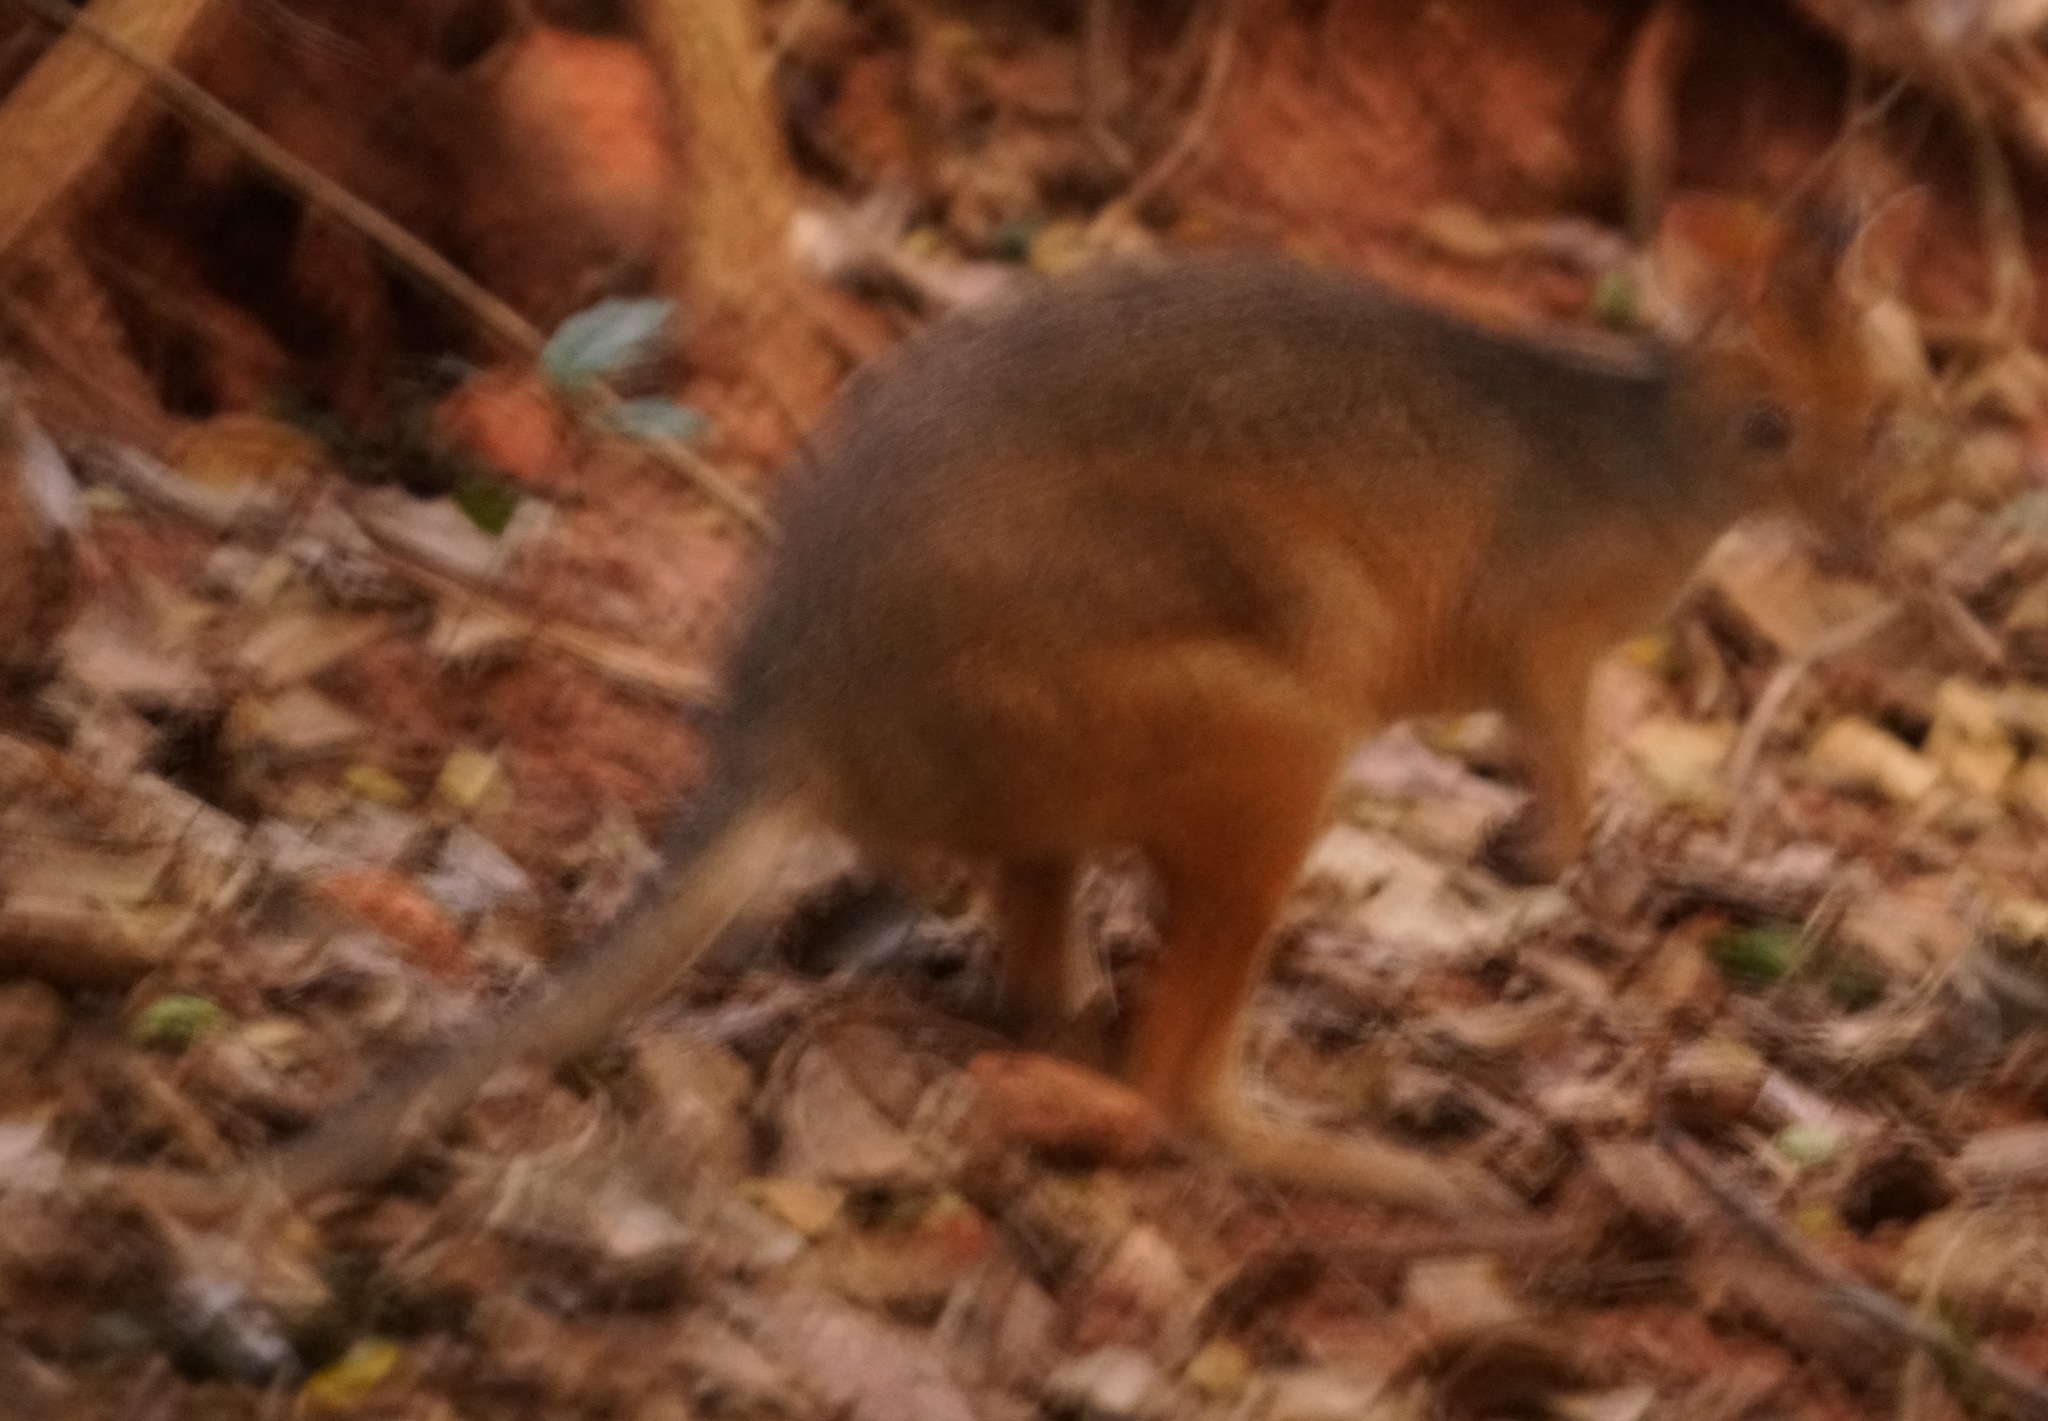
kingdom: Animalia
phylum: Chordata
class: Mammalia
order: Diprotodontia
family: Macropodidae
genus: Thylogale
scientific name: Thylogale stigmatica
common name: Red-legged pademelon
